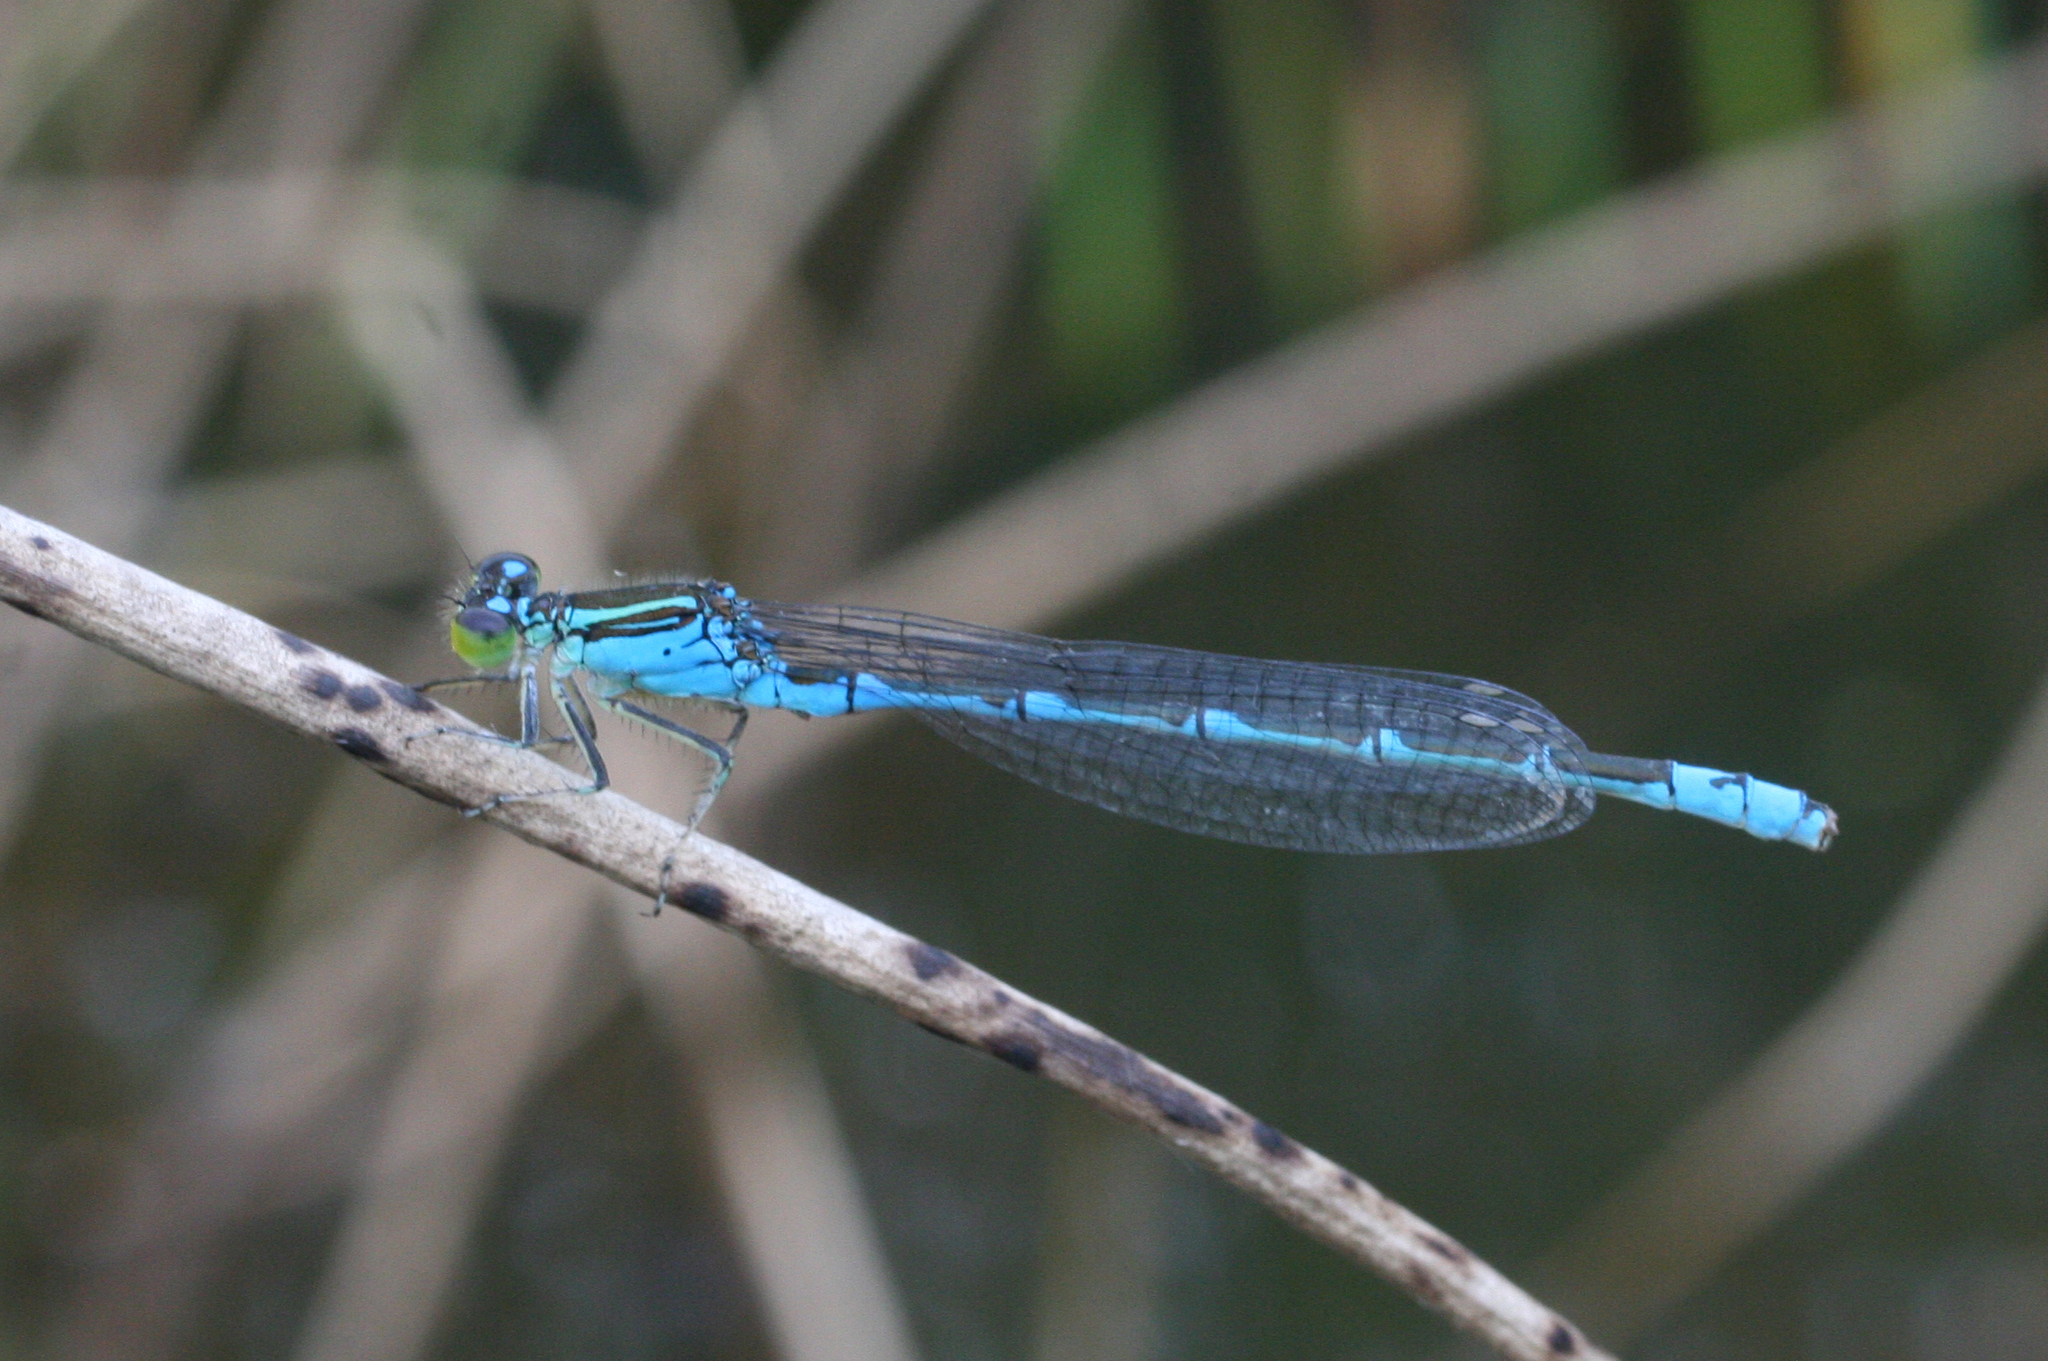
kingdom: Animalia
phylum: Arthropoda
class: Insecta
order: Odonata
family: Coenagrionidae
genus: Paracercion
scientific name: Paracercion v-nigrum
